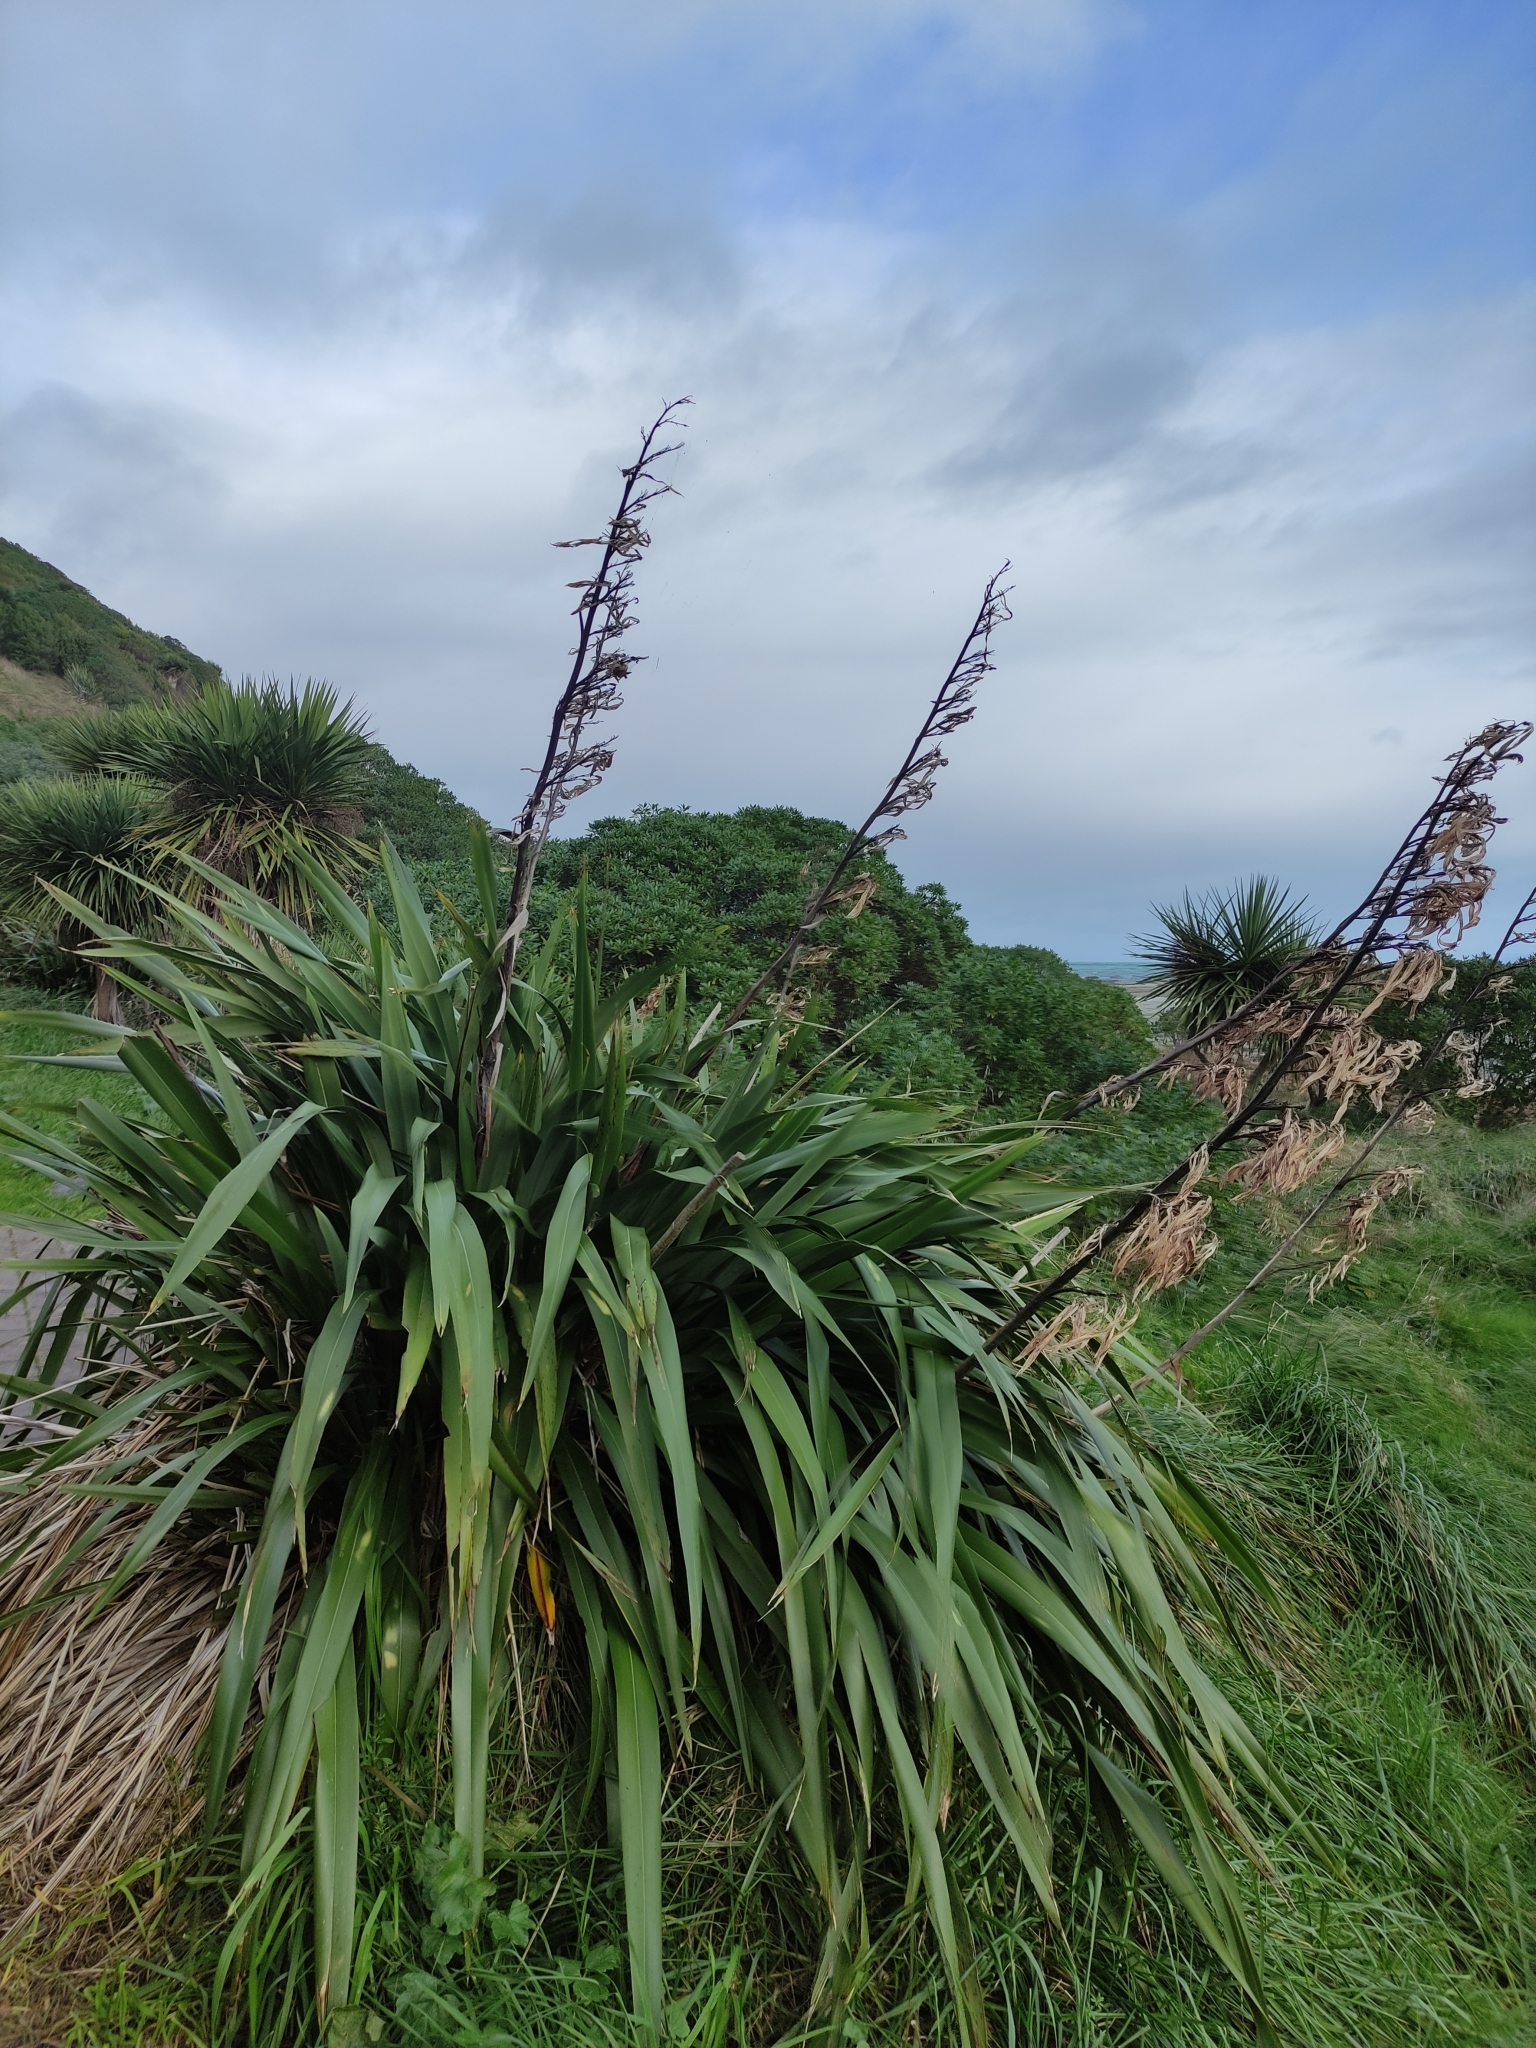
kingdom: Plantae
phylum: Tracheophyta
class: Liliopsida
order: Asparagales
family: Asphodelaceae
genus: Phormium
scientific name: Phormium tenax
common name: New zealand flax
